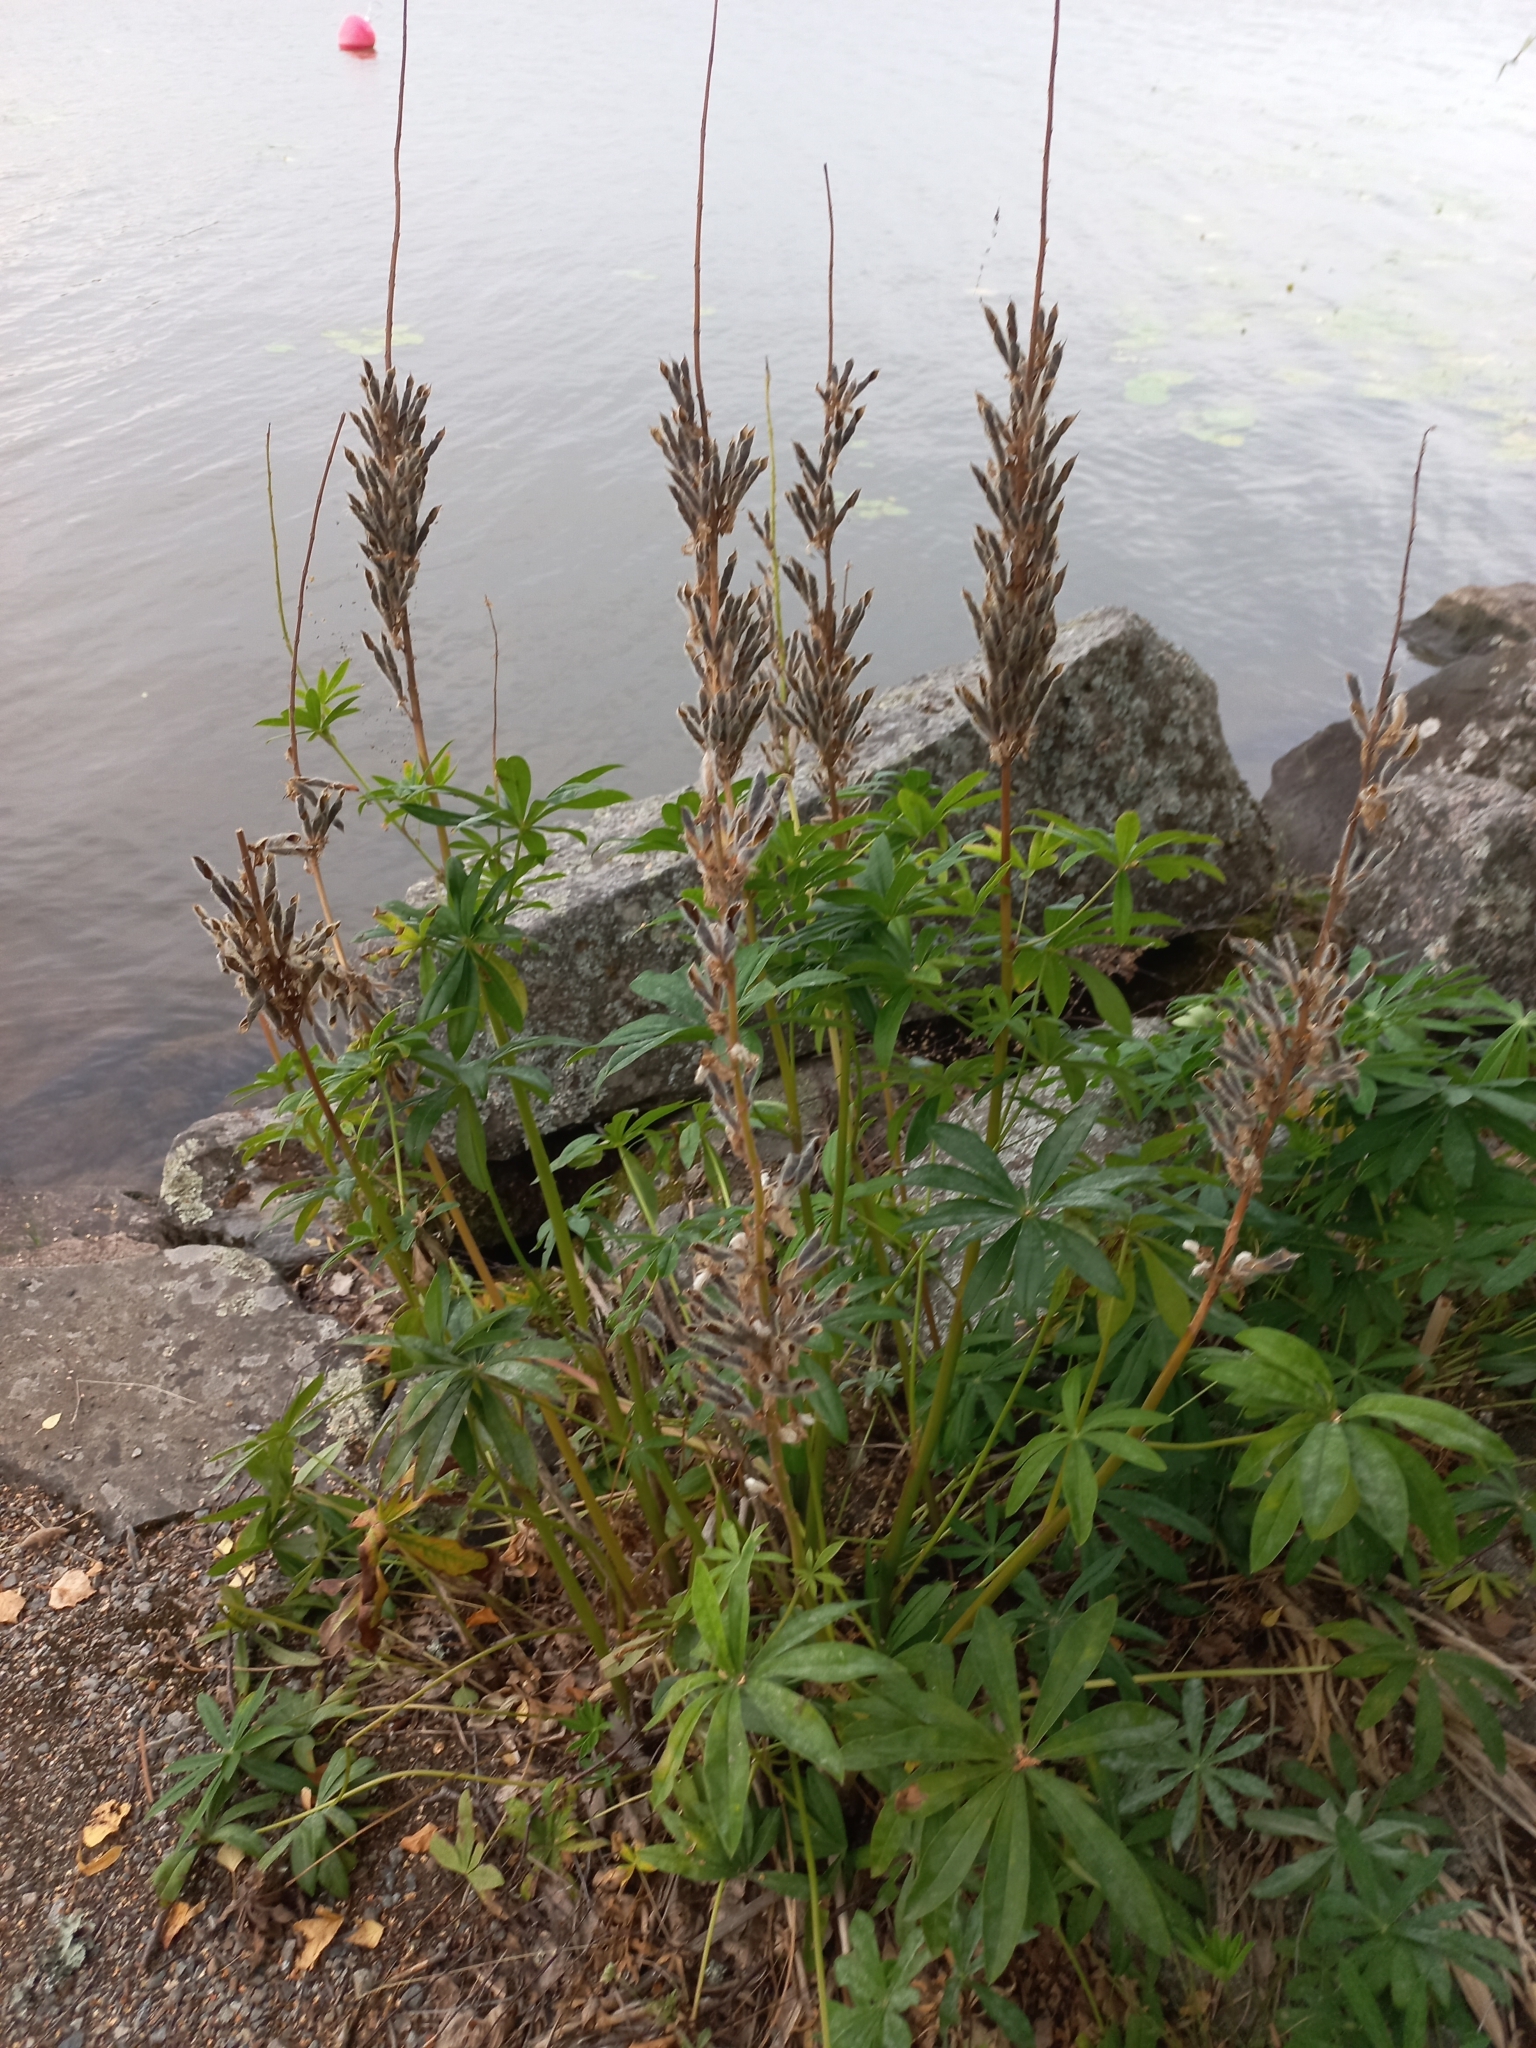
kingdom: Plantae
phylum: Tracheophyta
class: Magnoliopsida
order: Fabales
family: Fabaceae
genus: Lupinus
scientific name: Lupinus polyphyllus
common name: Garden lupin
